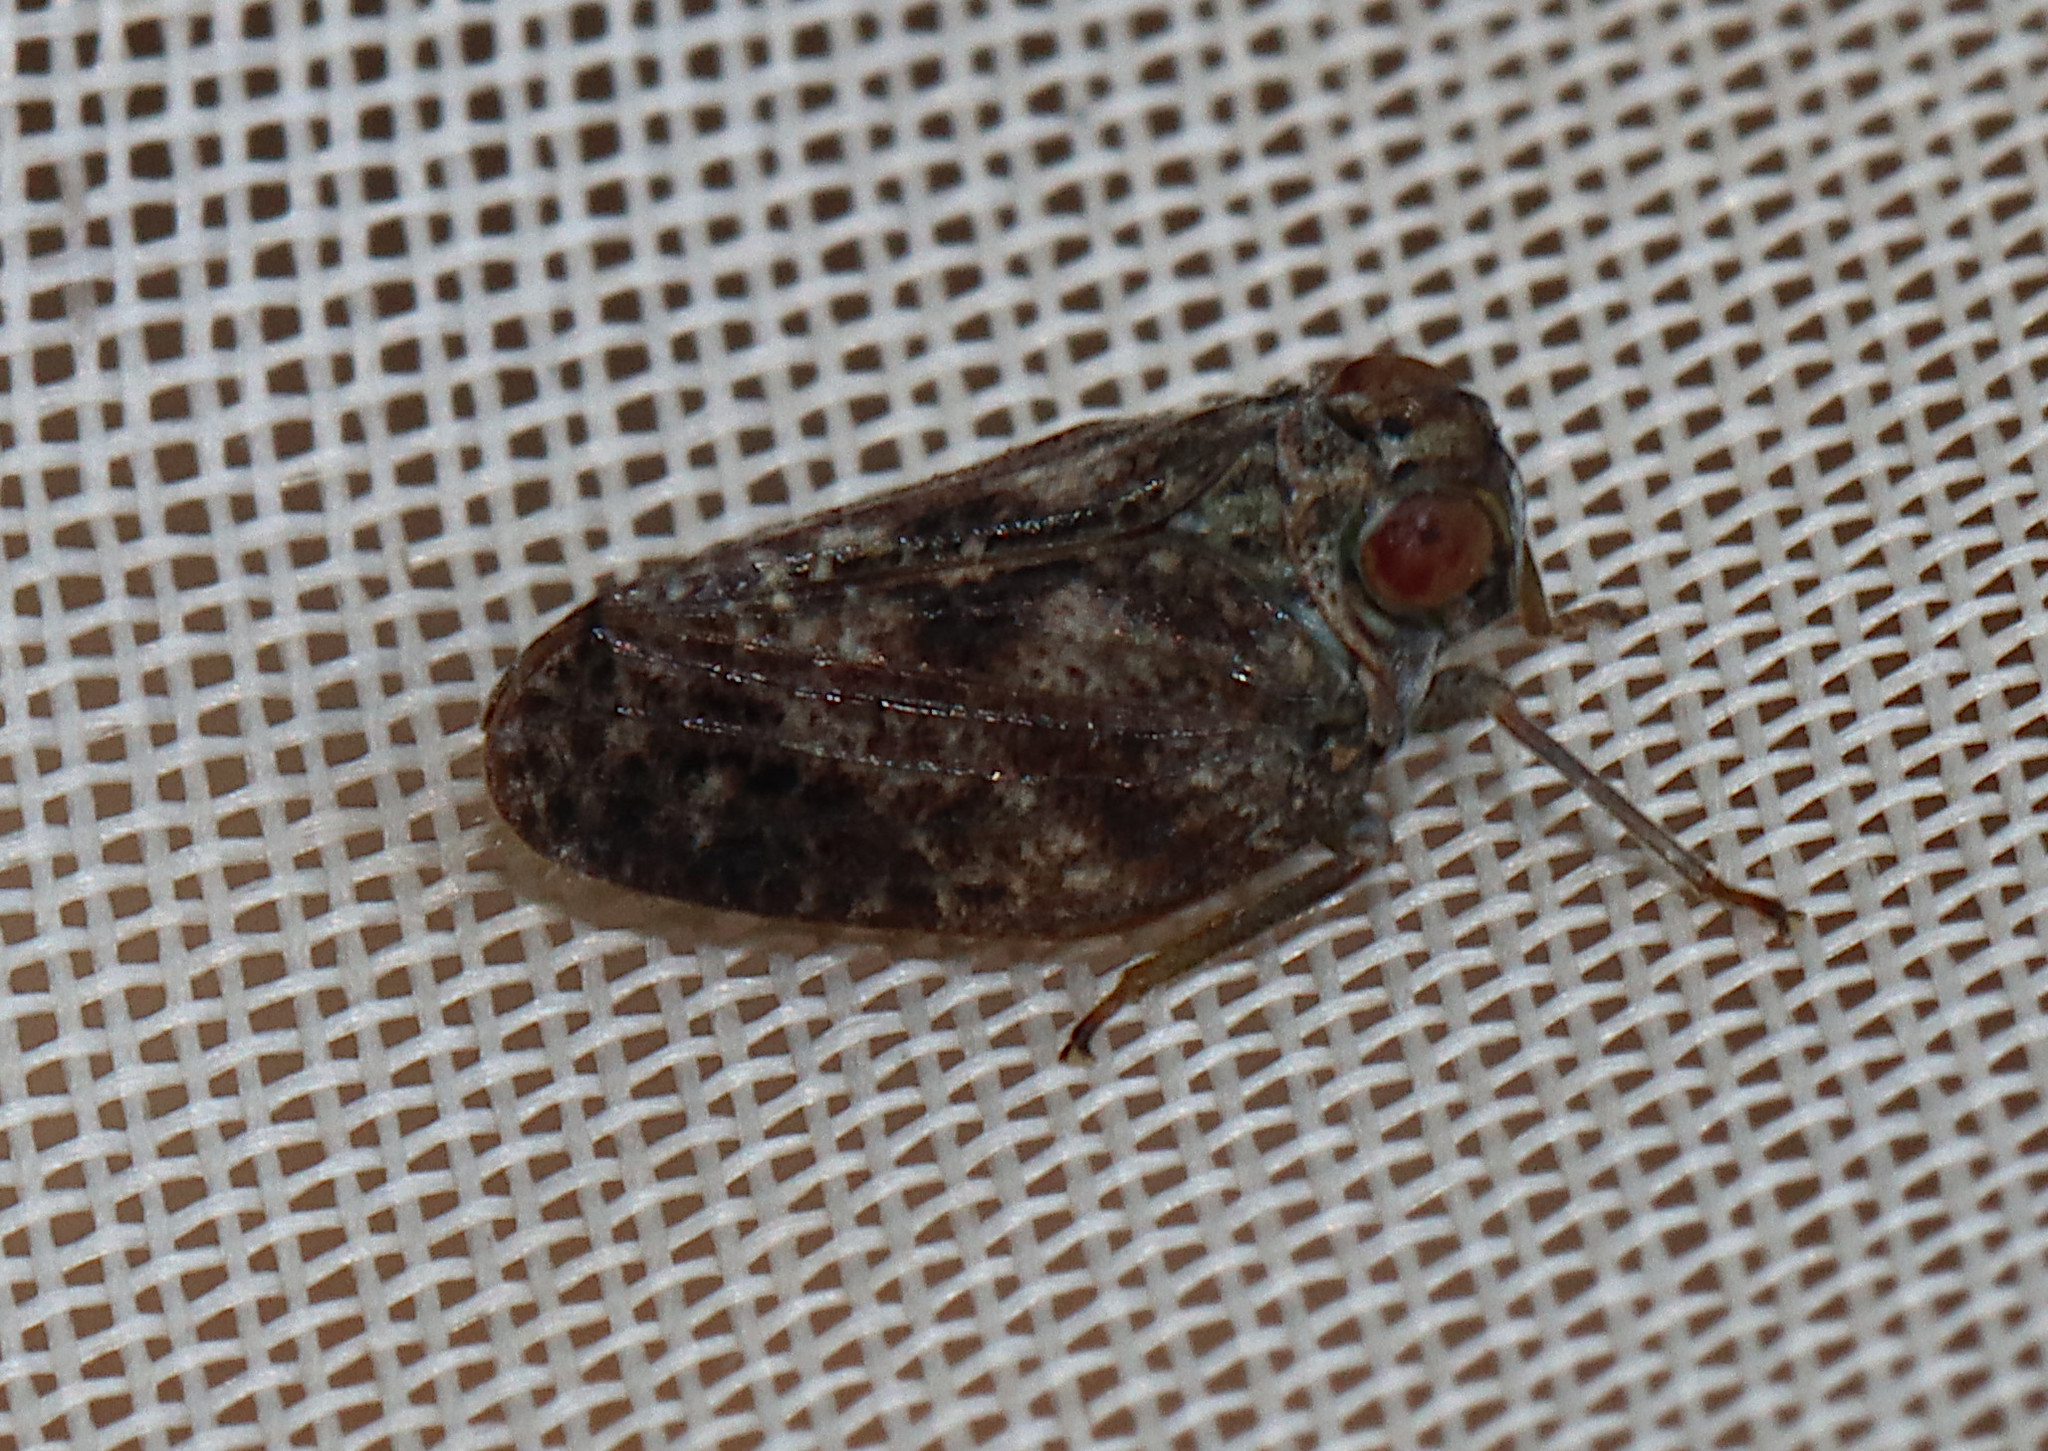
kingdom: Animalia
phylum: Arthropoda
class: Insecta
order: Hemiptera
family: Issidae
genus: Thionia
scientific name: Thionia bullata
